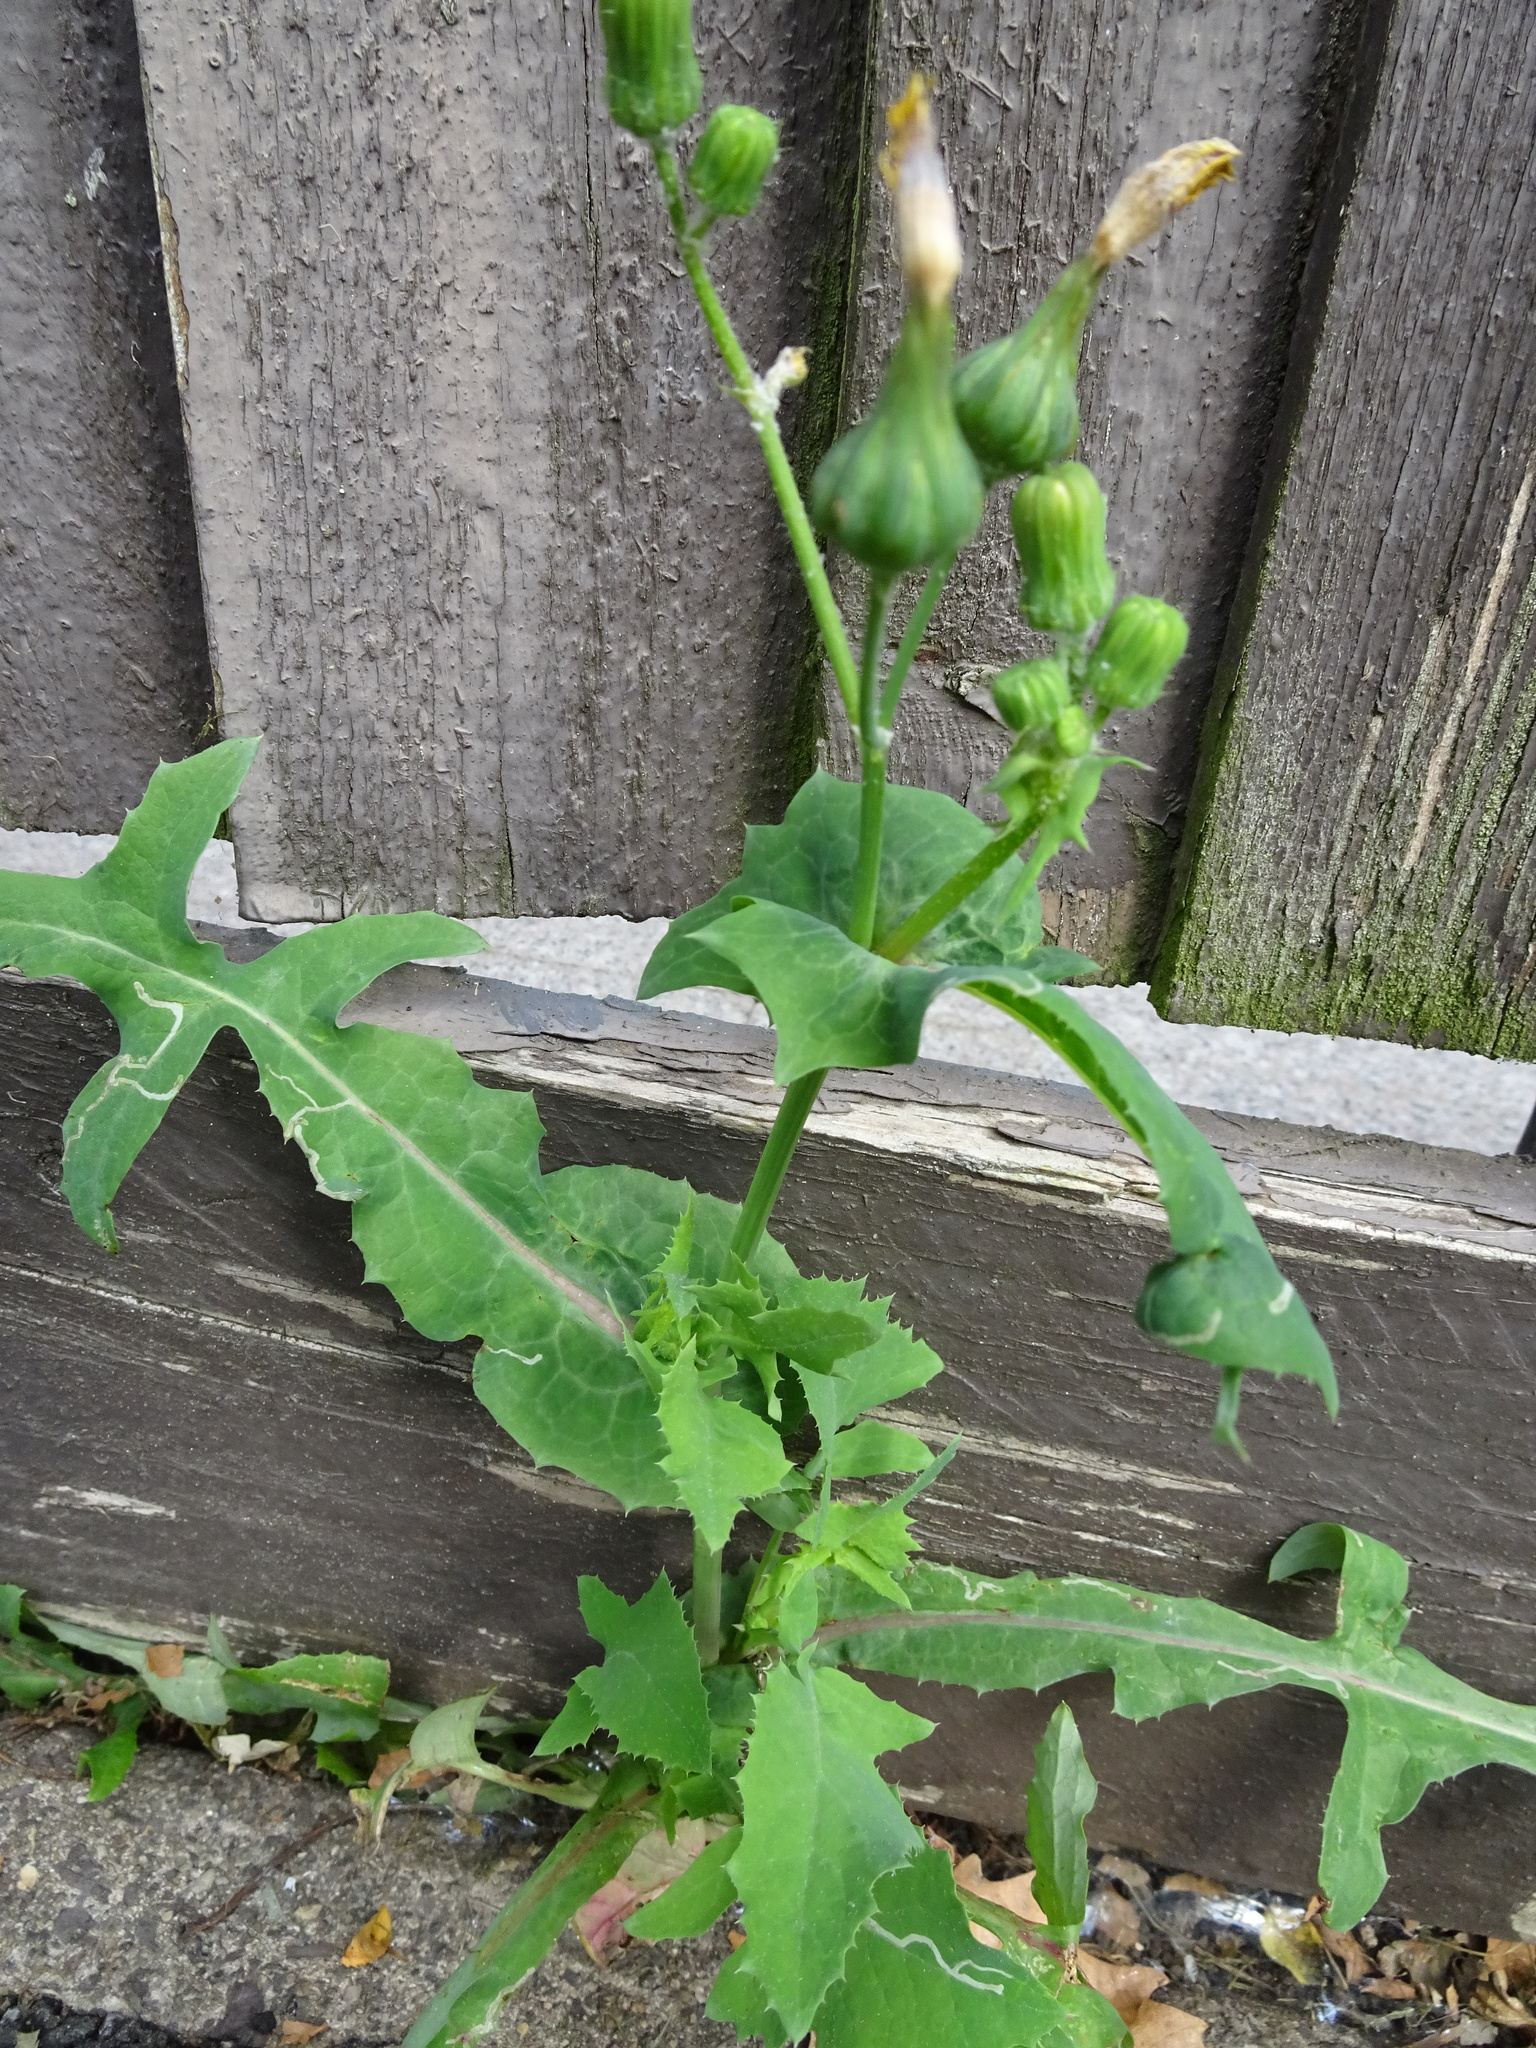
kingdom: Plantae
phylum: Tracheophyta
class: Magnoliopsida
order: Asterales
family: Asteraceae
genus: Sonchus
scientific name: Sonchus oleraceus
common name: Common sowthistle
